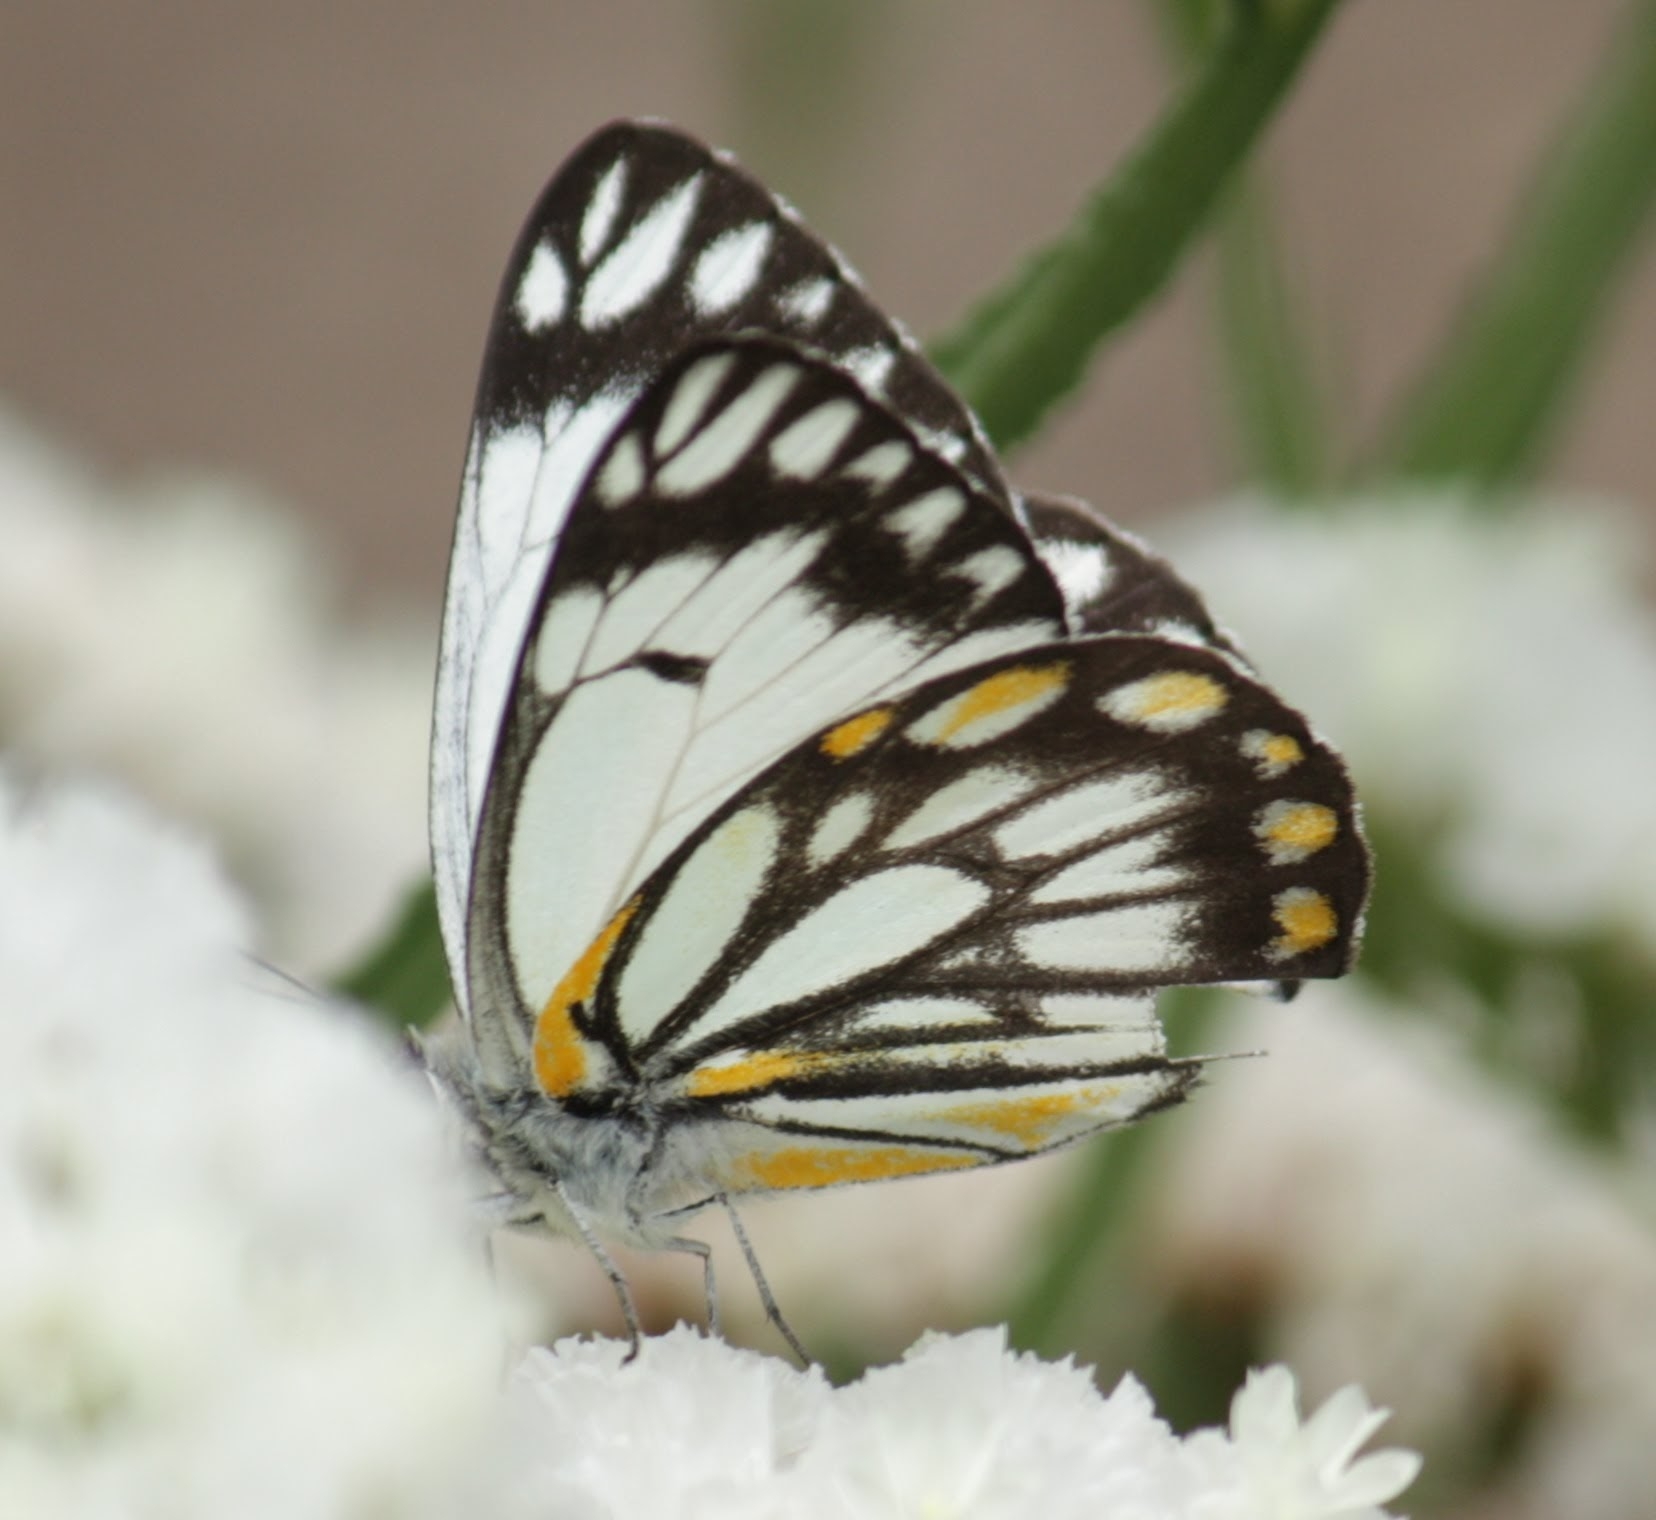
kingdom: Animalia
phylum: Arthropoda
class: Insecta
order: Lepidoptera
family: Pieridae
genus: Belenois
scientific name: Belenois java
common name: Caper white
